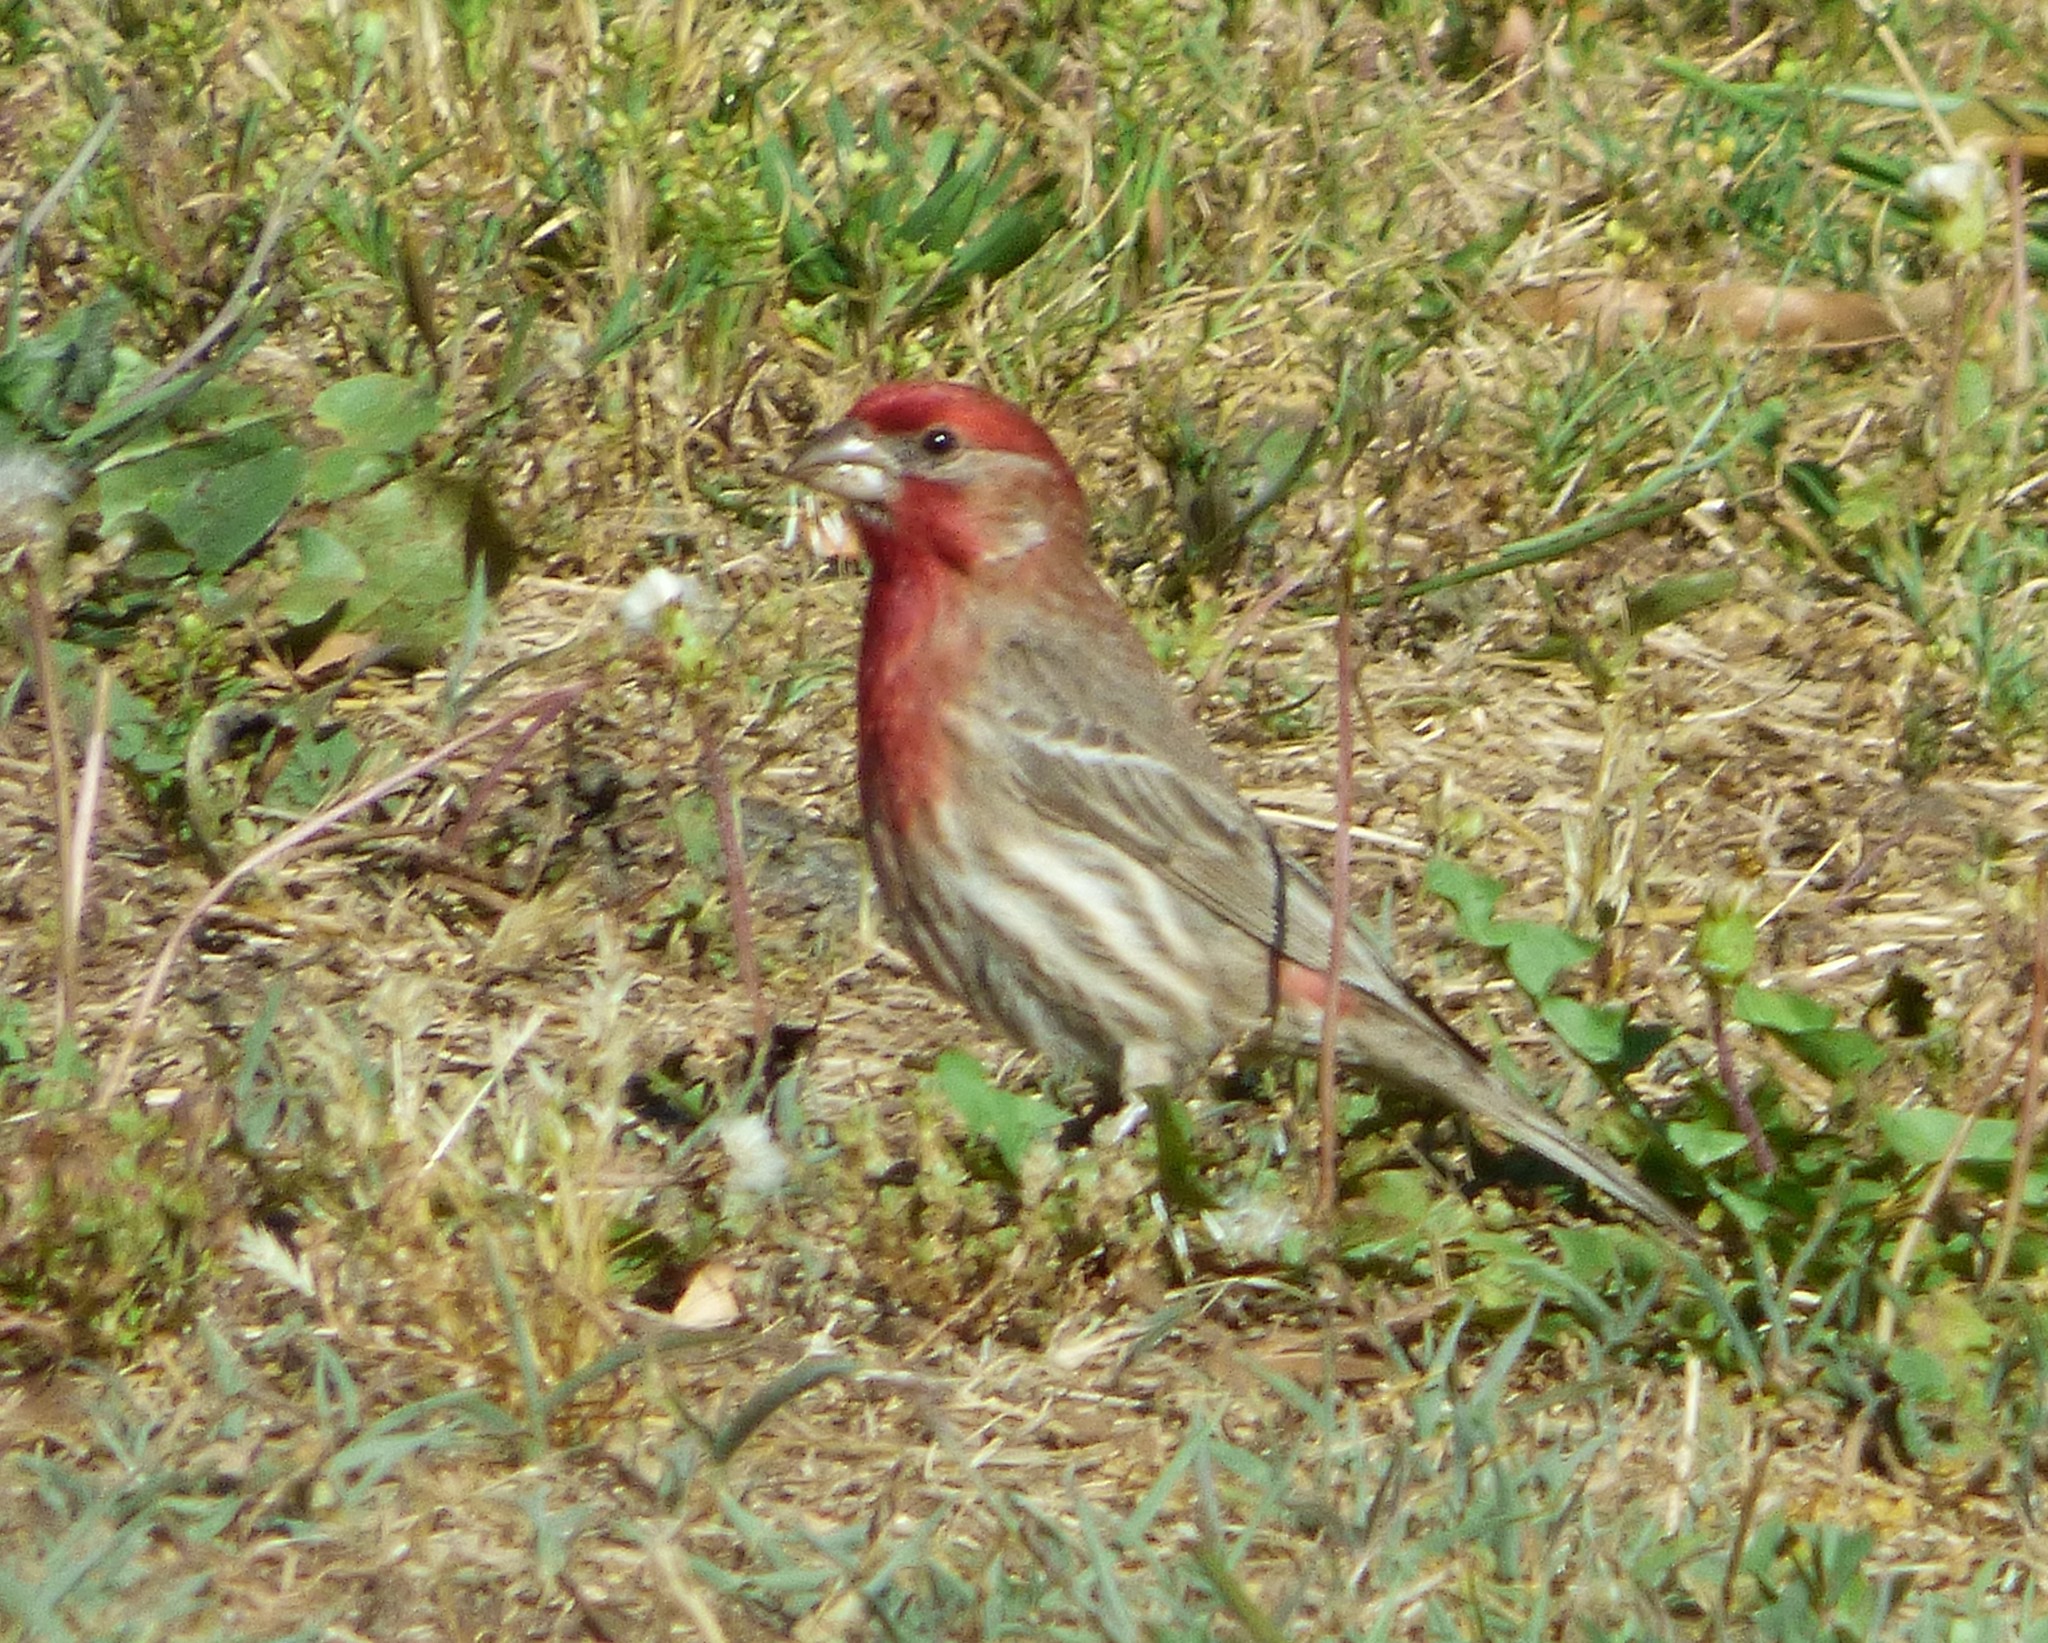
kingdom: Animalia
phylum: Chordata
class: Aves
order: Passeriformes
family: Fringillidae
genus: Haemorhous
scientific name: Haemorhous mexicanus
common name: House finch
